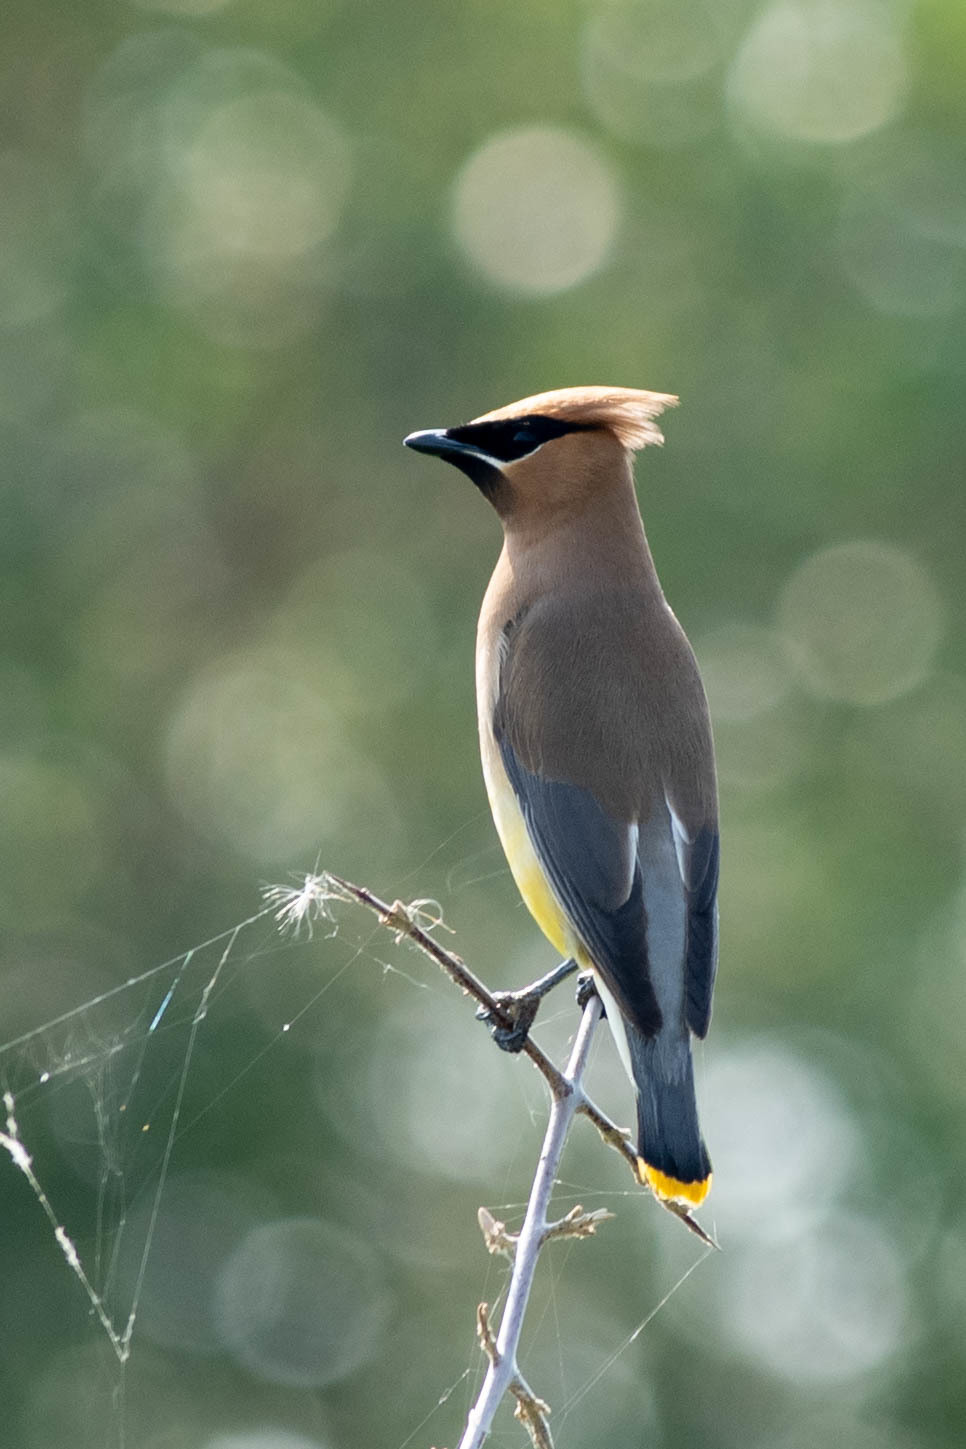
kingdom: Animalia
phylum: Chordata
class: Aves
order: Passeriformes
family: Bombycillidae
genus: Bombycilla
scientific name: Bombycilla cedrorum
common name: Cedar waxwing
